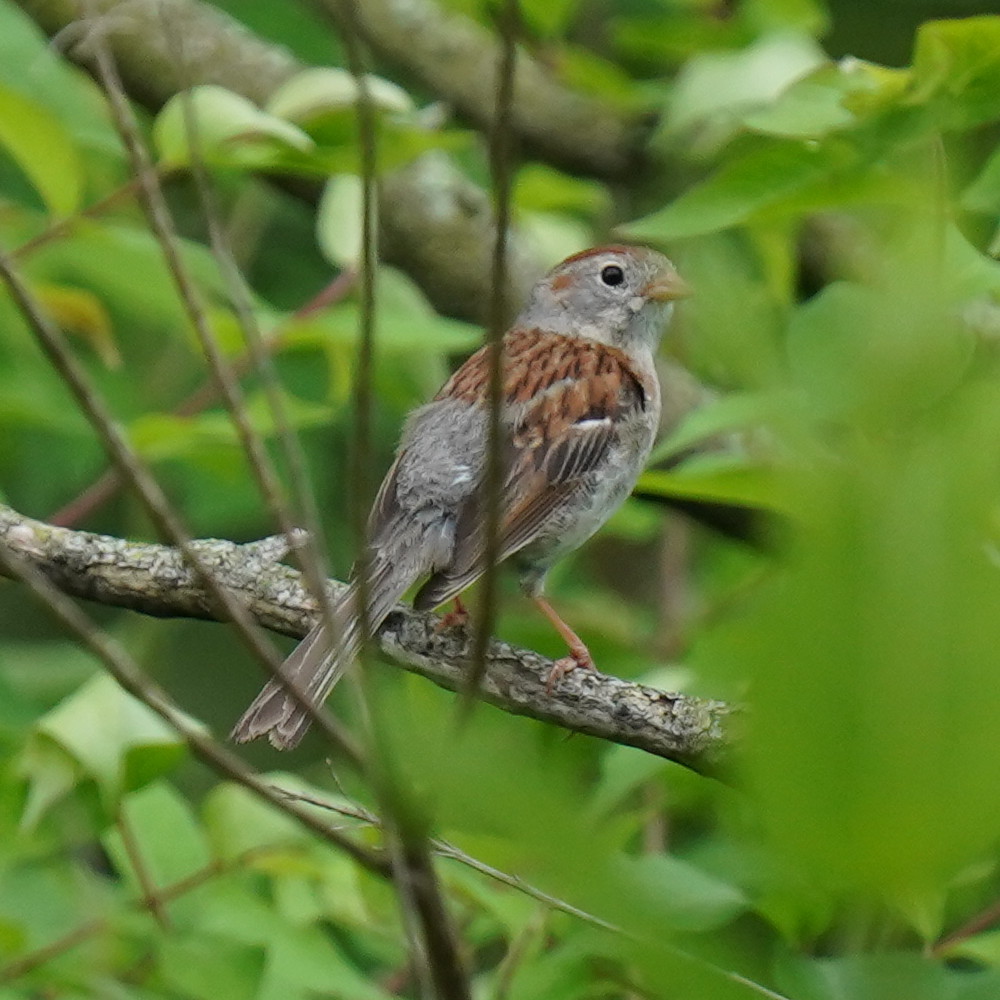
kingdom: Animalia
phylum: Chordata
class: Aves
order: Passeriformes
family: Passerellidae
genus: Spizella
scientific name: Spizella pusilla
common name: Field sparrow
